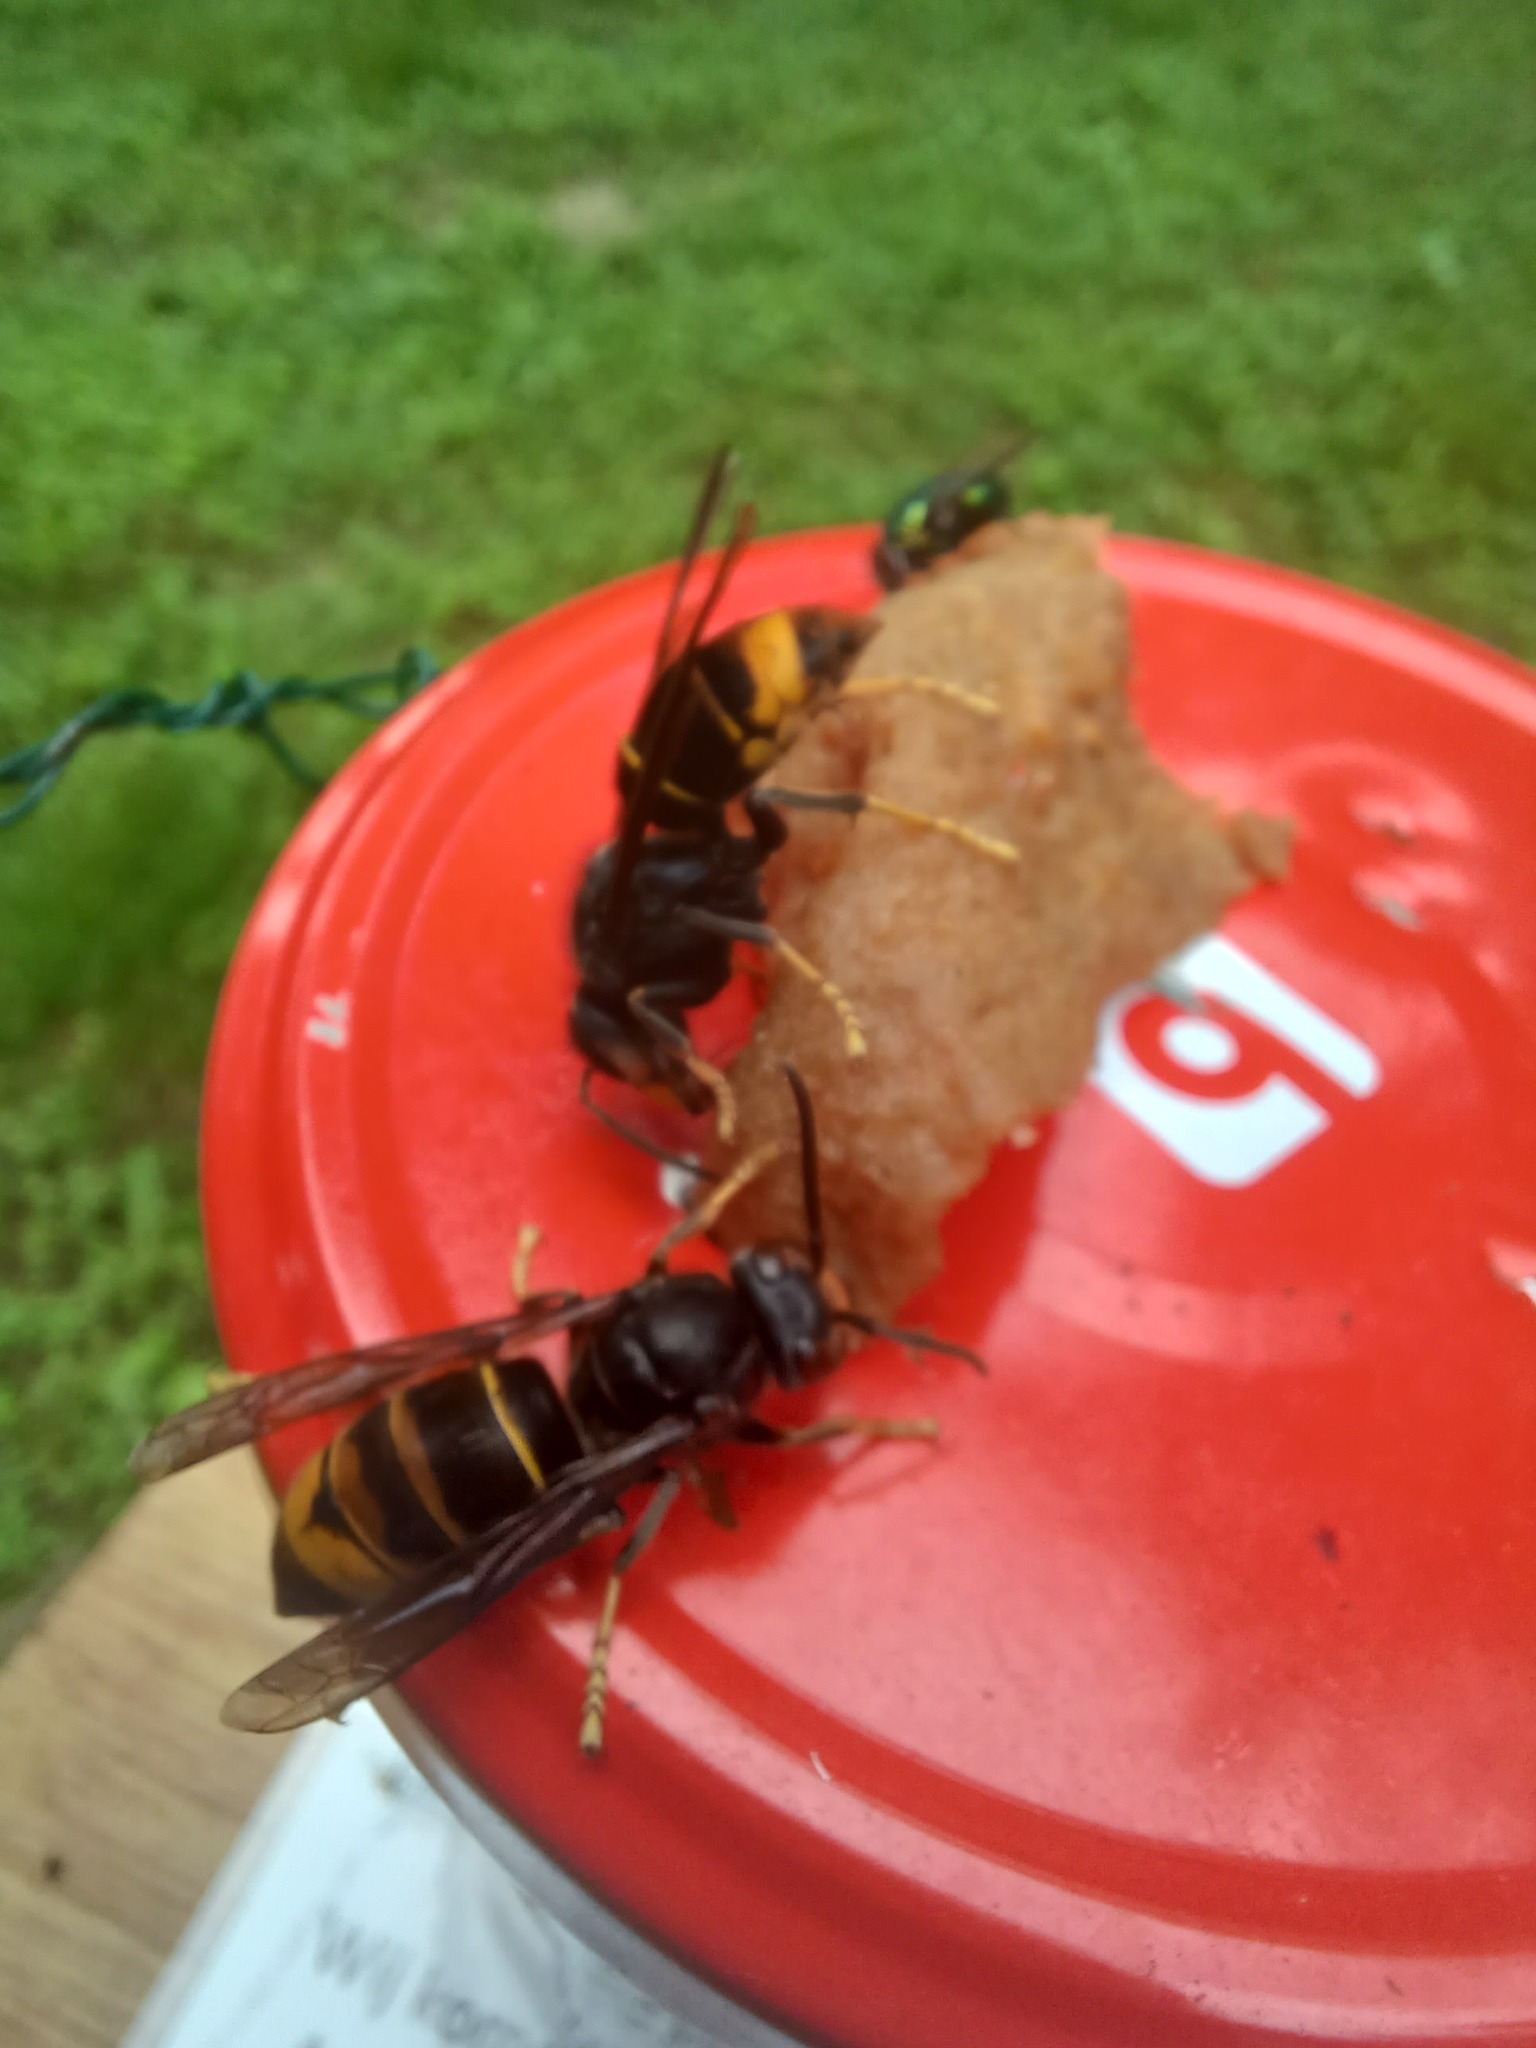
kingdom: Animalia
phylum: Arthropoda
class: Insecta
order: Hymenoptera
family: Vespidae
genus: Vespa
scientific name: Vespa velutina
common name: Asian hornet
